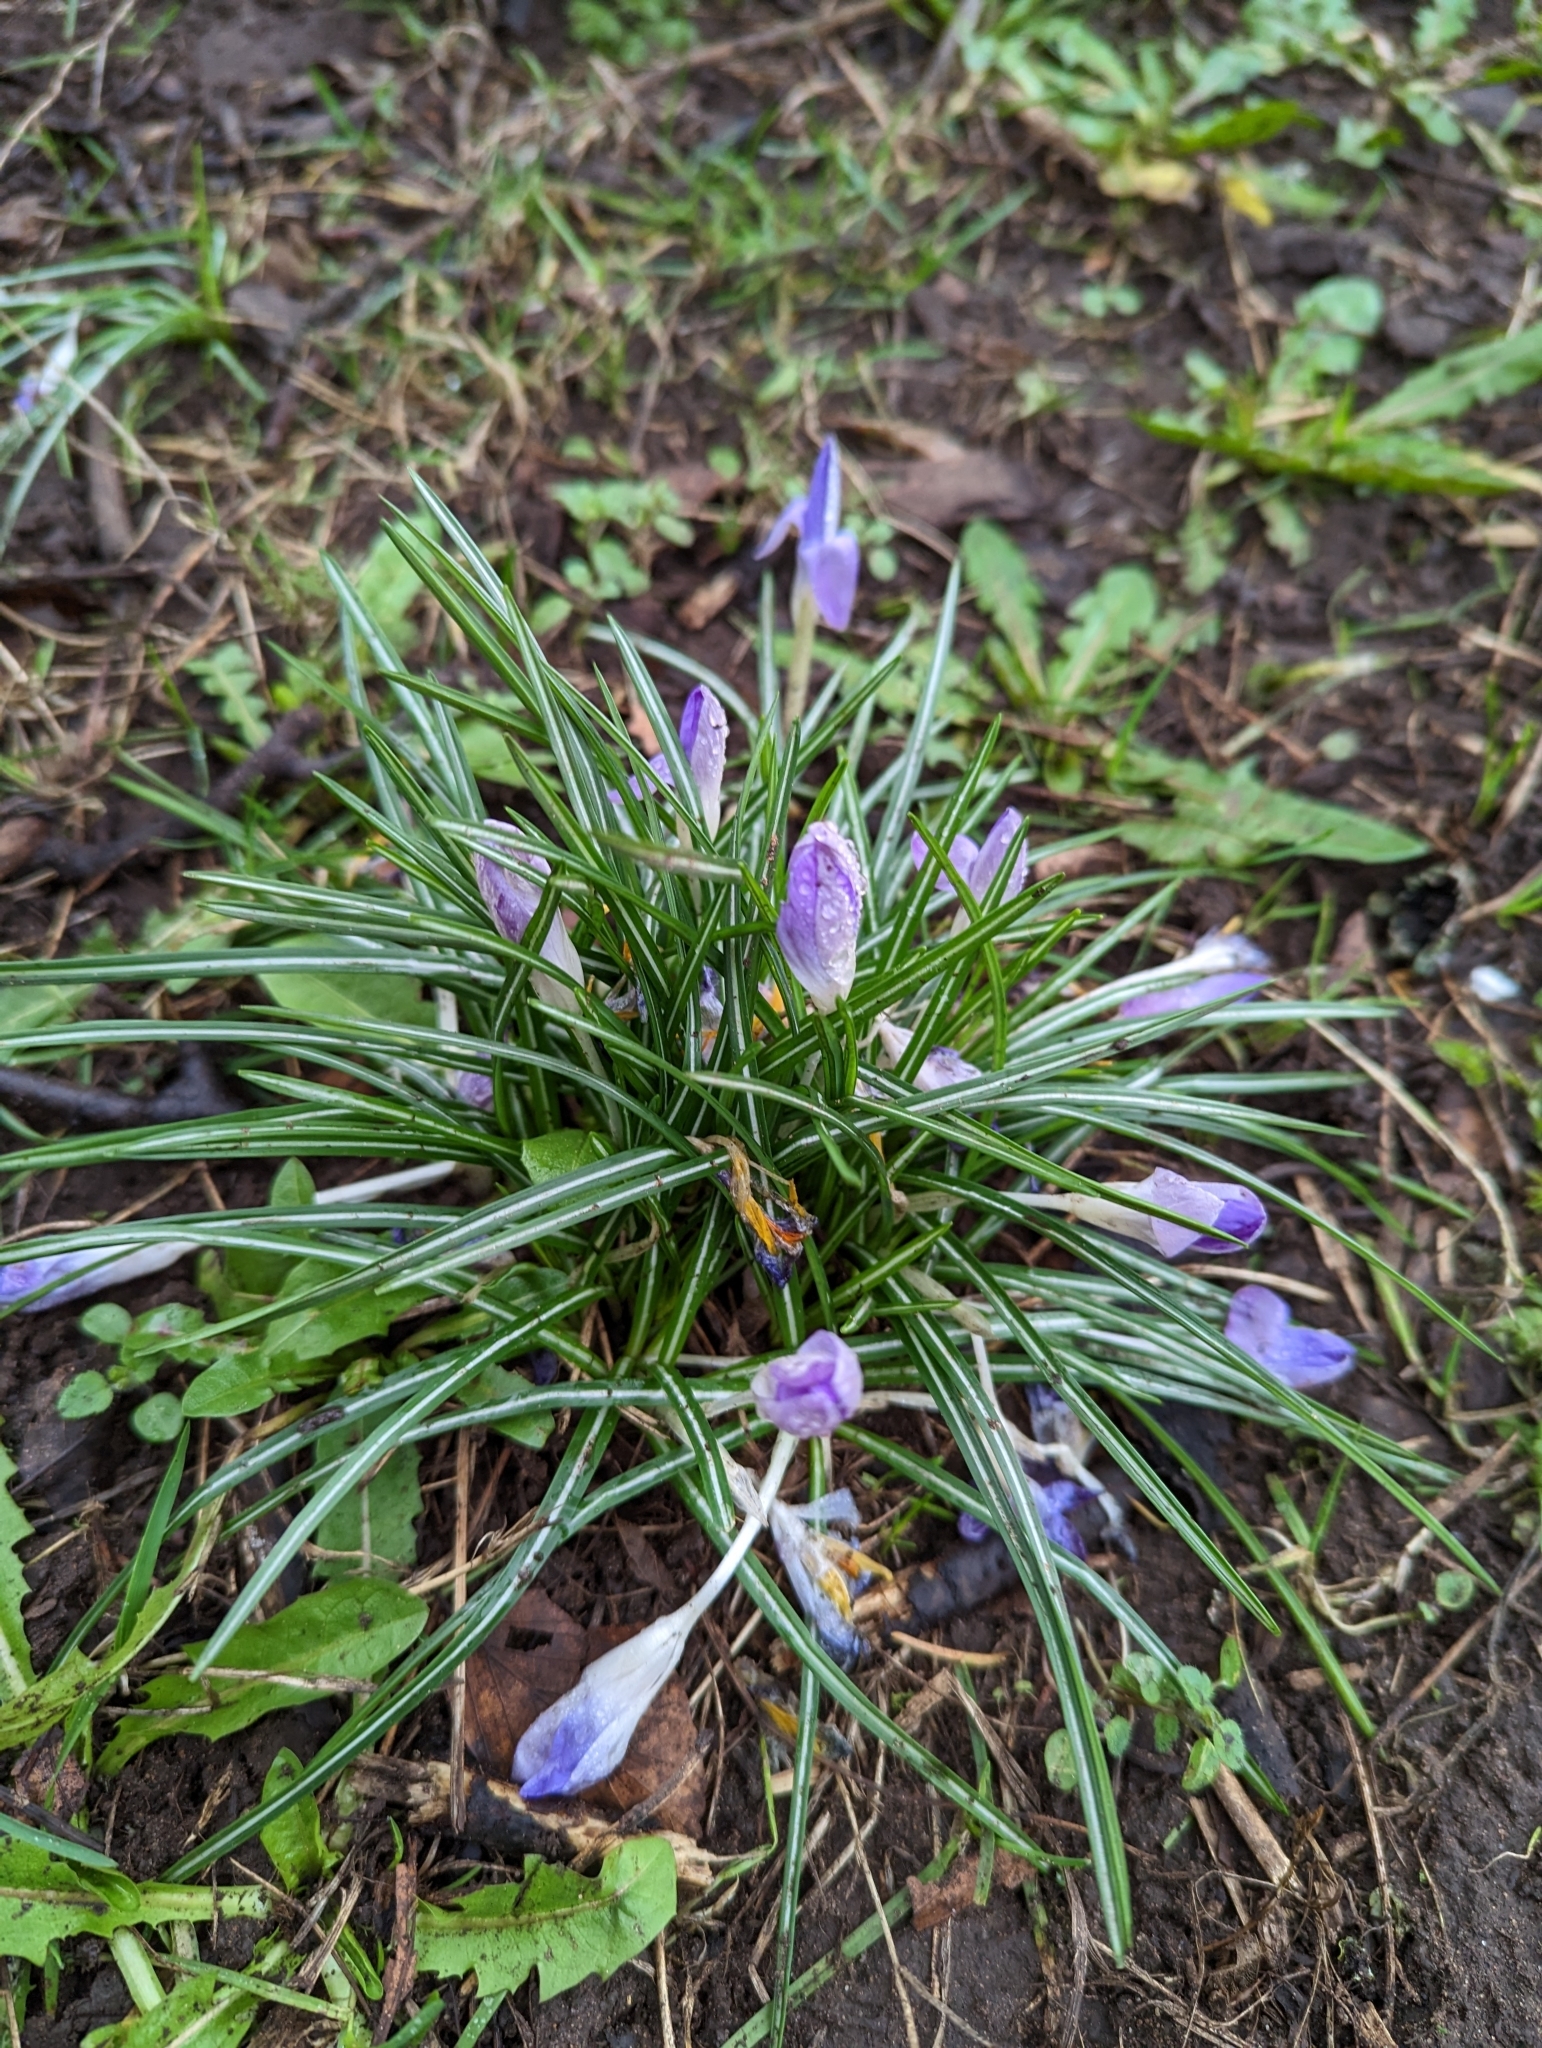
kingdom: Plantae
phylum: Tracheophyta
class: Liliopsida
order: Asparagales
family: Iridaceae
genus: Crocus
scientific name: Crocus tommasinianus
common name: Early crocus
